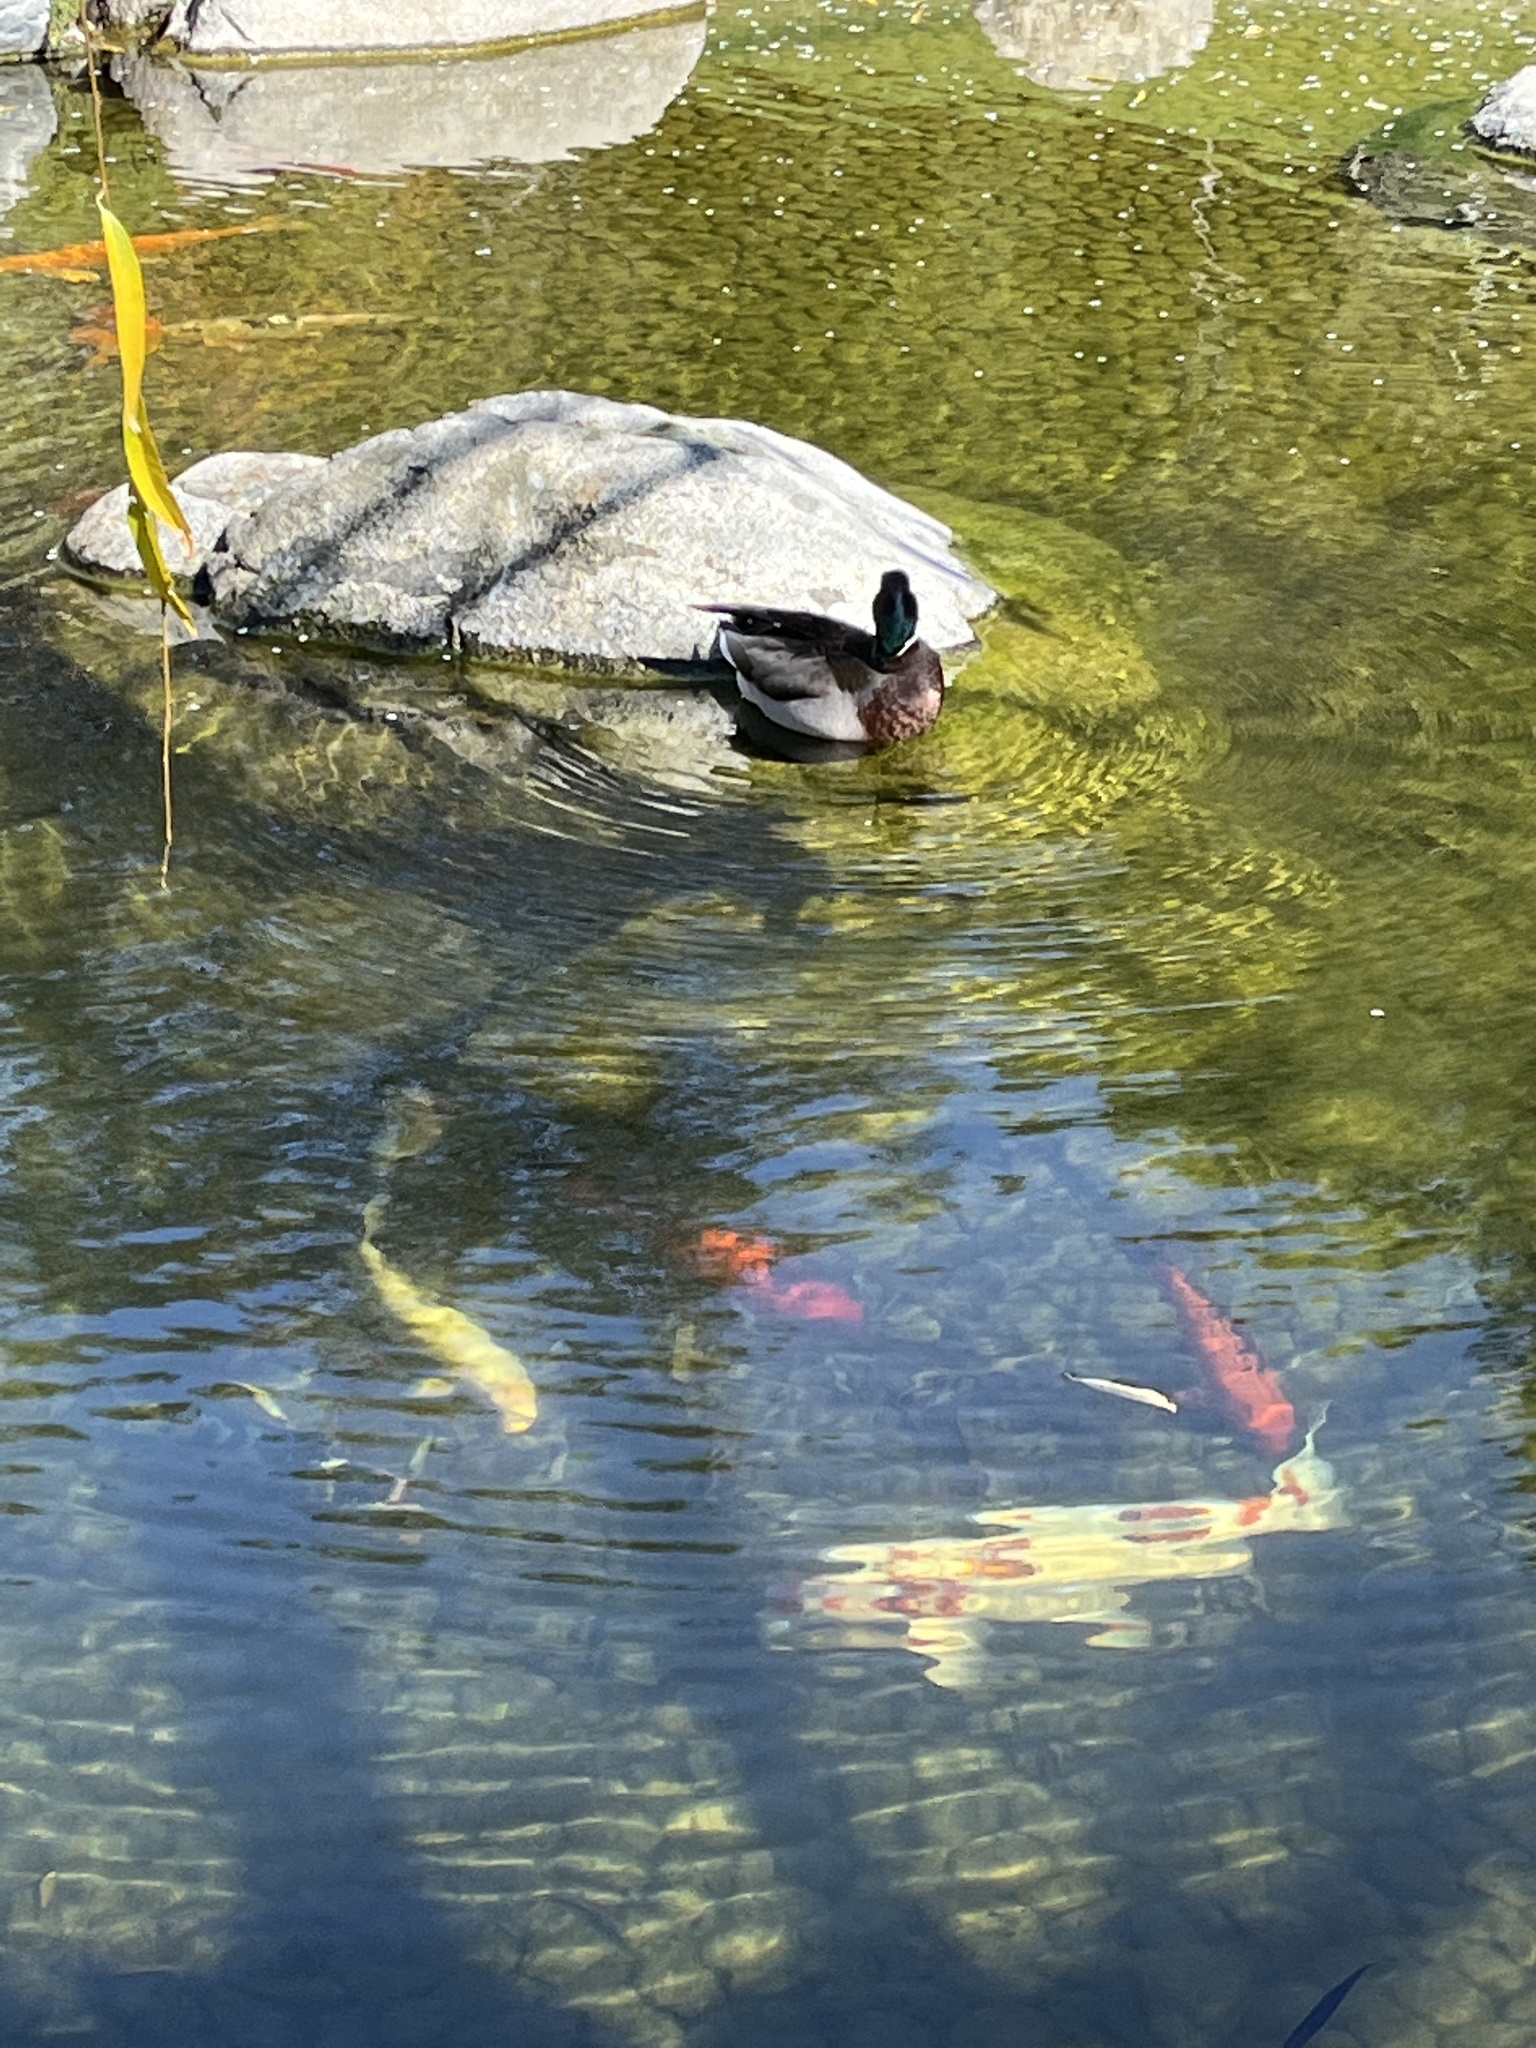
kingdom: Animalia
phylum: Chordata
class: Aves
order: Anseriformes
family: Anatidae
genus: Anas
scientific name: Anas platyrhynchos
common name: Mallard
